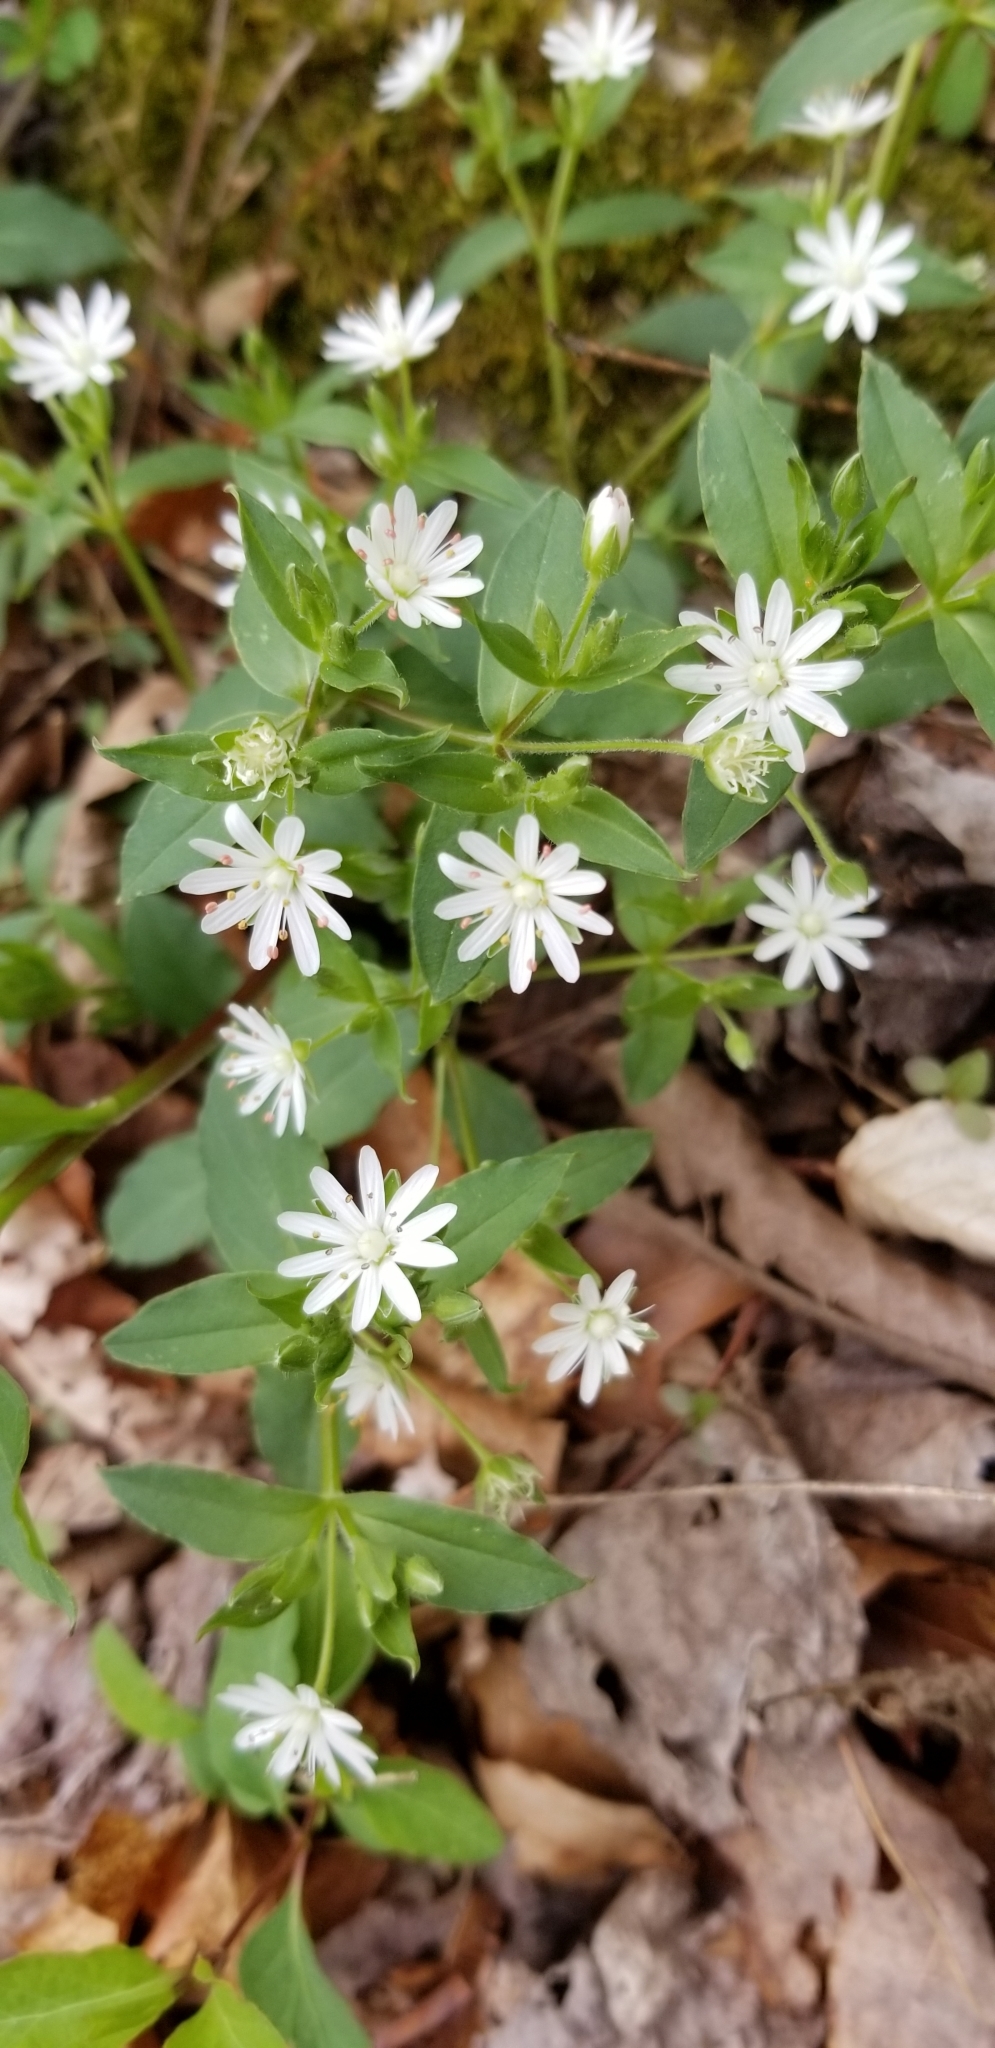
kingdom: Plantae
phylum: Tracheophyta
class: Magnoliopsida
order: Caryophyllales
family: Caryophyllaceae
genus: Stellaria
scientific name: Stellaria pubera
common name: Star chickweed
